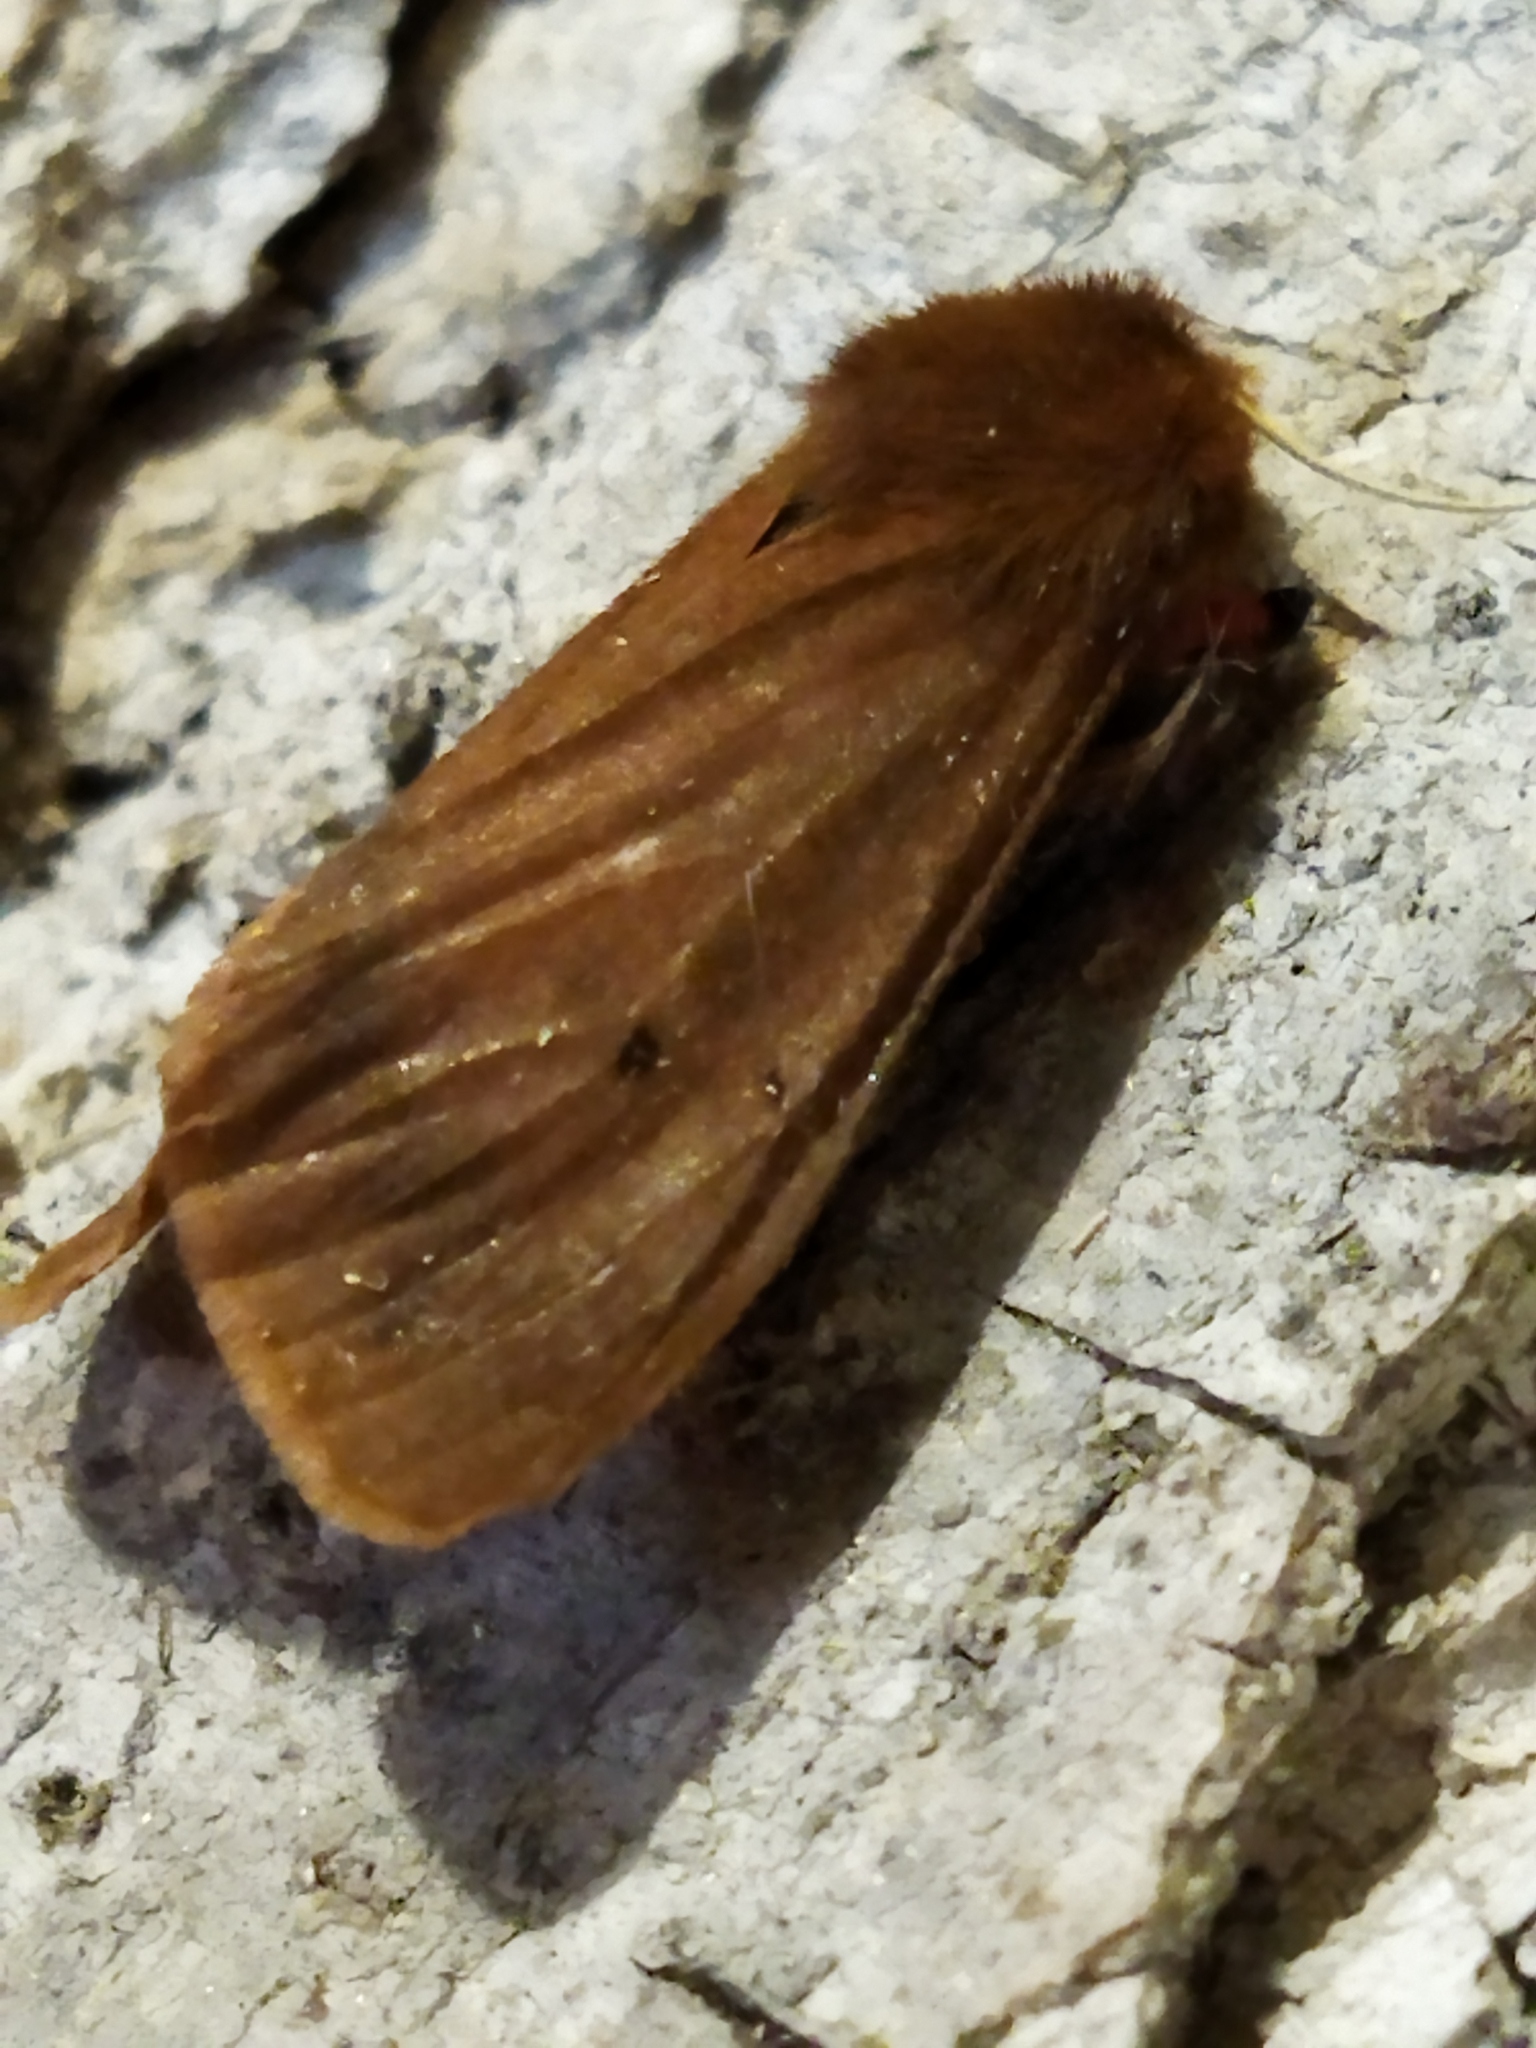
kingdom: Animalia
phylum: Arthropoda
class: Insecta
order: Lepidoptera
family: Erebidae
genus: Phragmatobia
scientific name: Phragmatobia fuliginosa
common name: Ruby tiger
